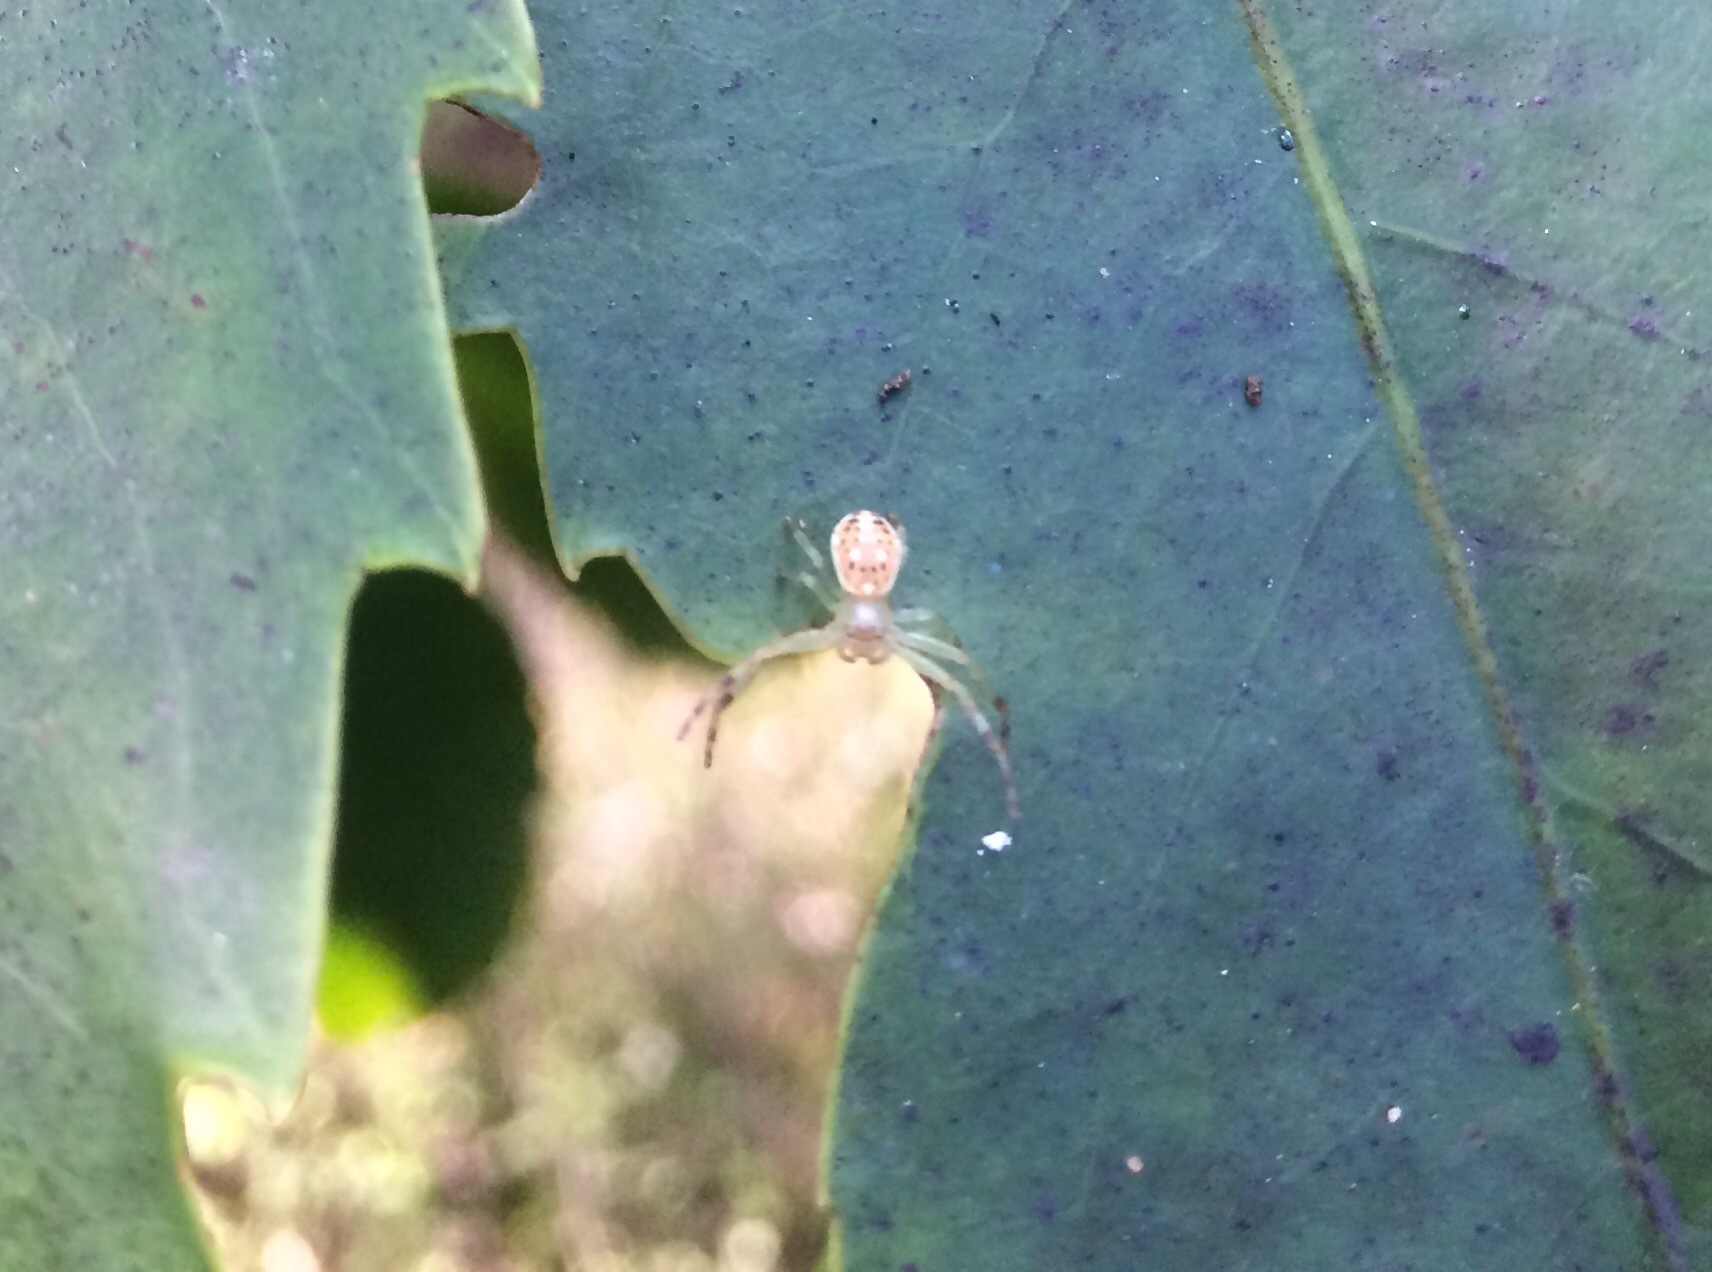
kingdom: Animalia
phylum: Arthropoda
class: Arachnida
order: Araneae
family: Thomisidae
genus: Diaea
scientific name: Diaea ambara
